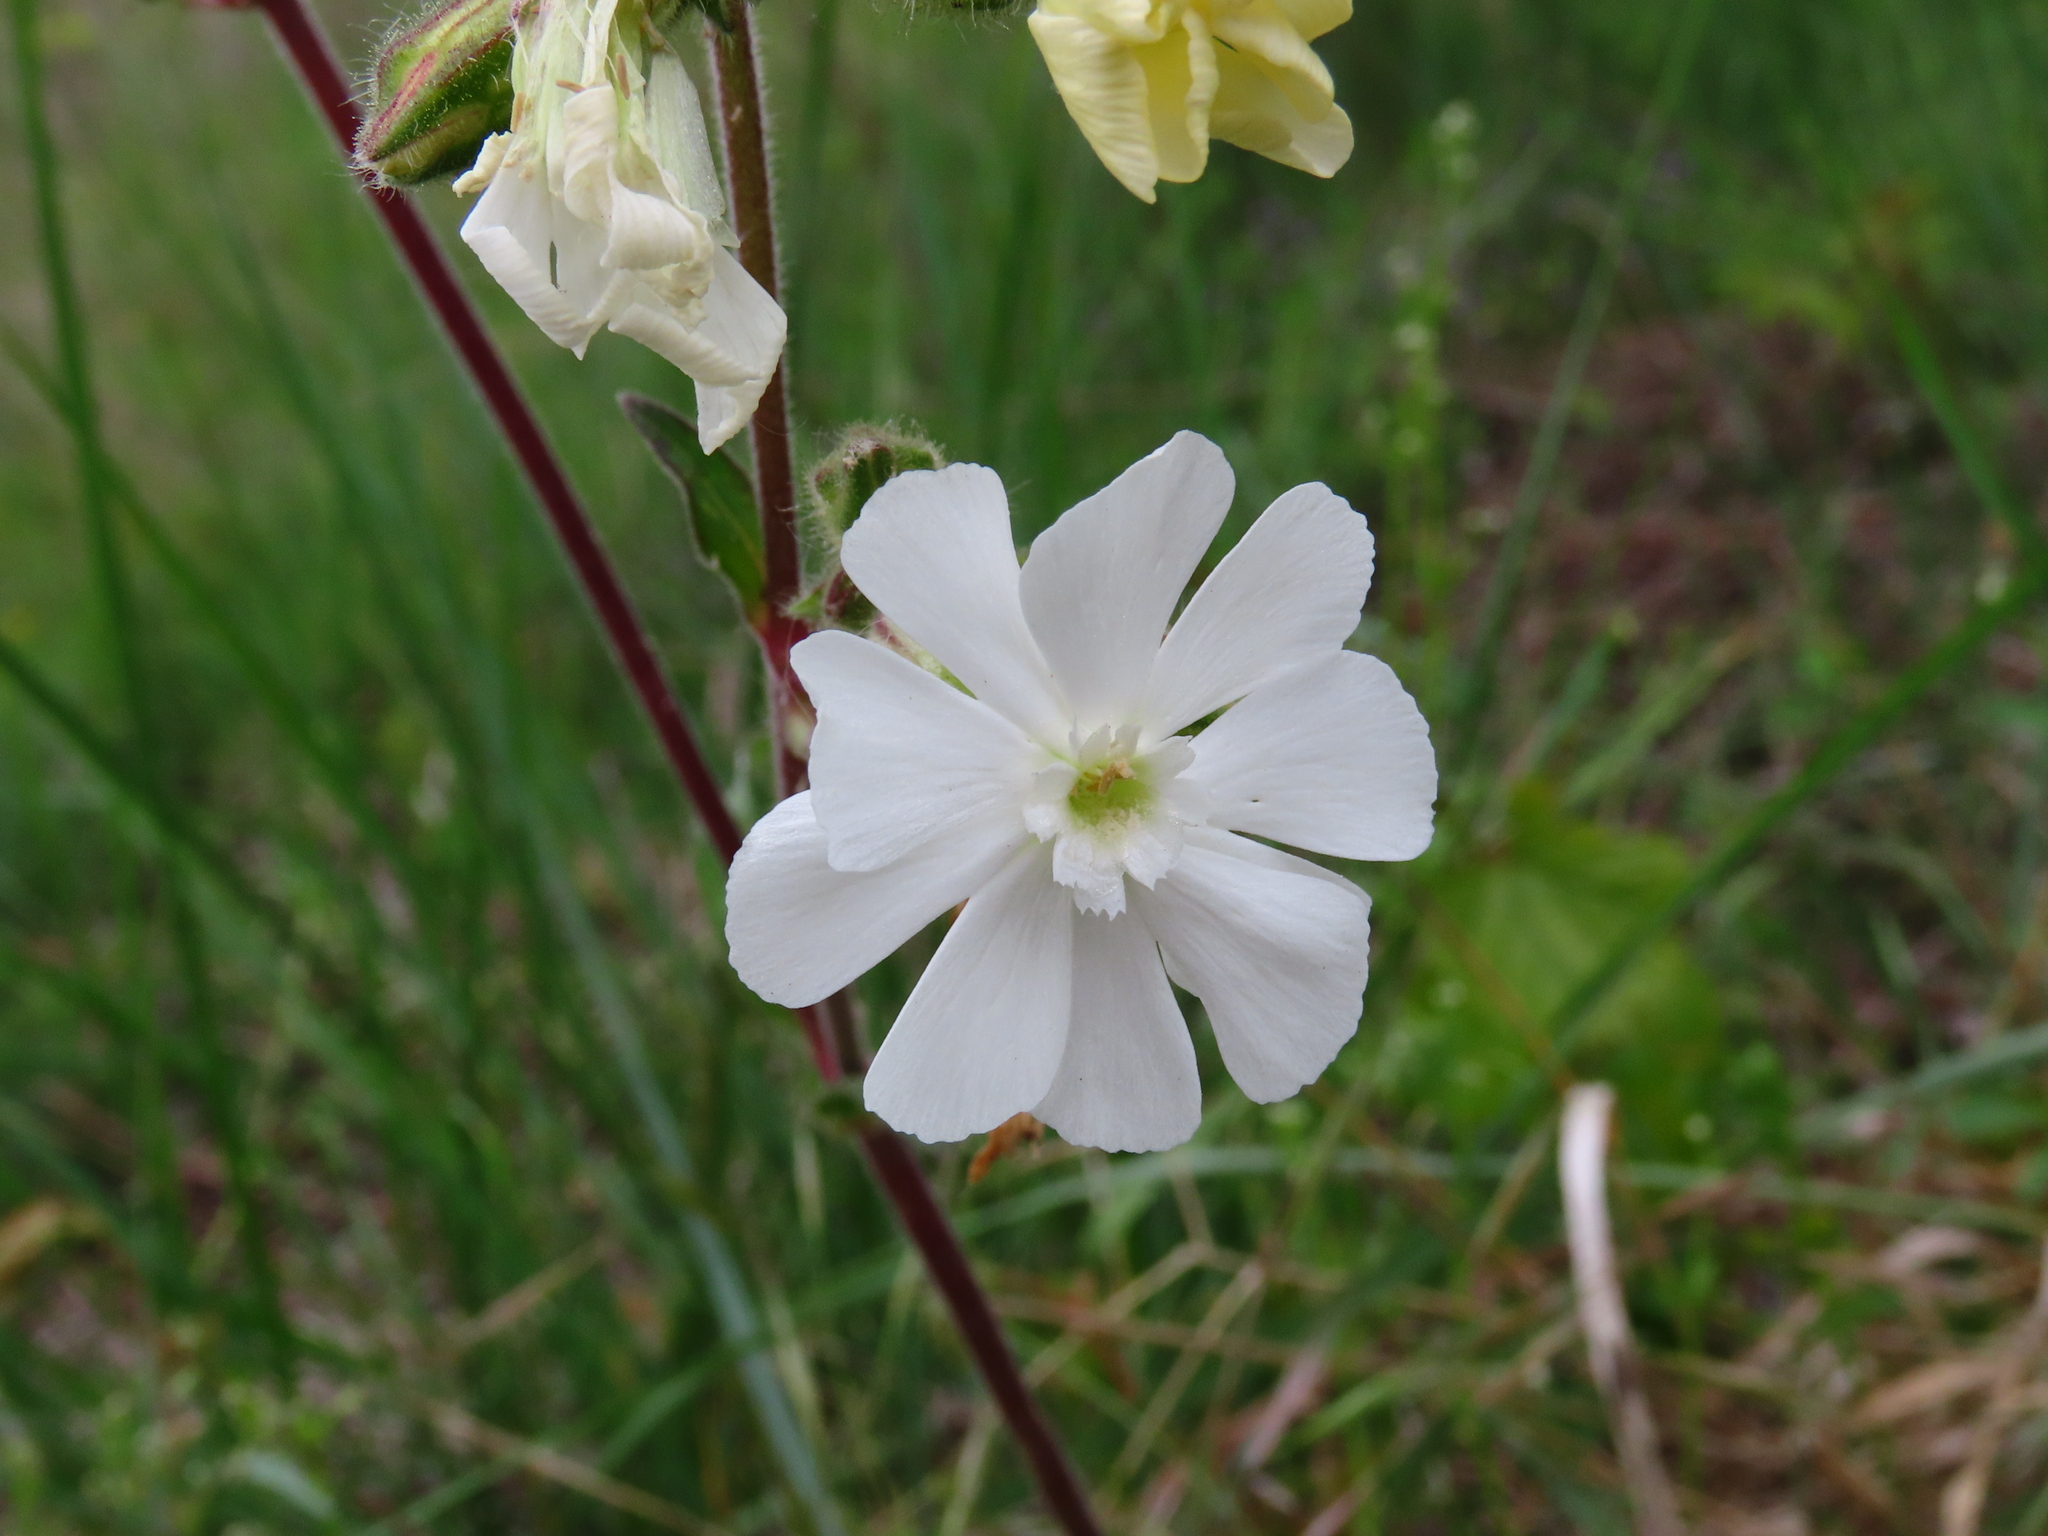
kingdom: Plantae
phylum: Tracheophyta
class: Magnoliopsida
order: Caryophyllales
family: Caryophyllaceae
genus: Silene
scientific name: Silene latifolia
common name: White campion
